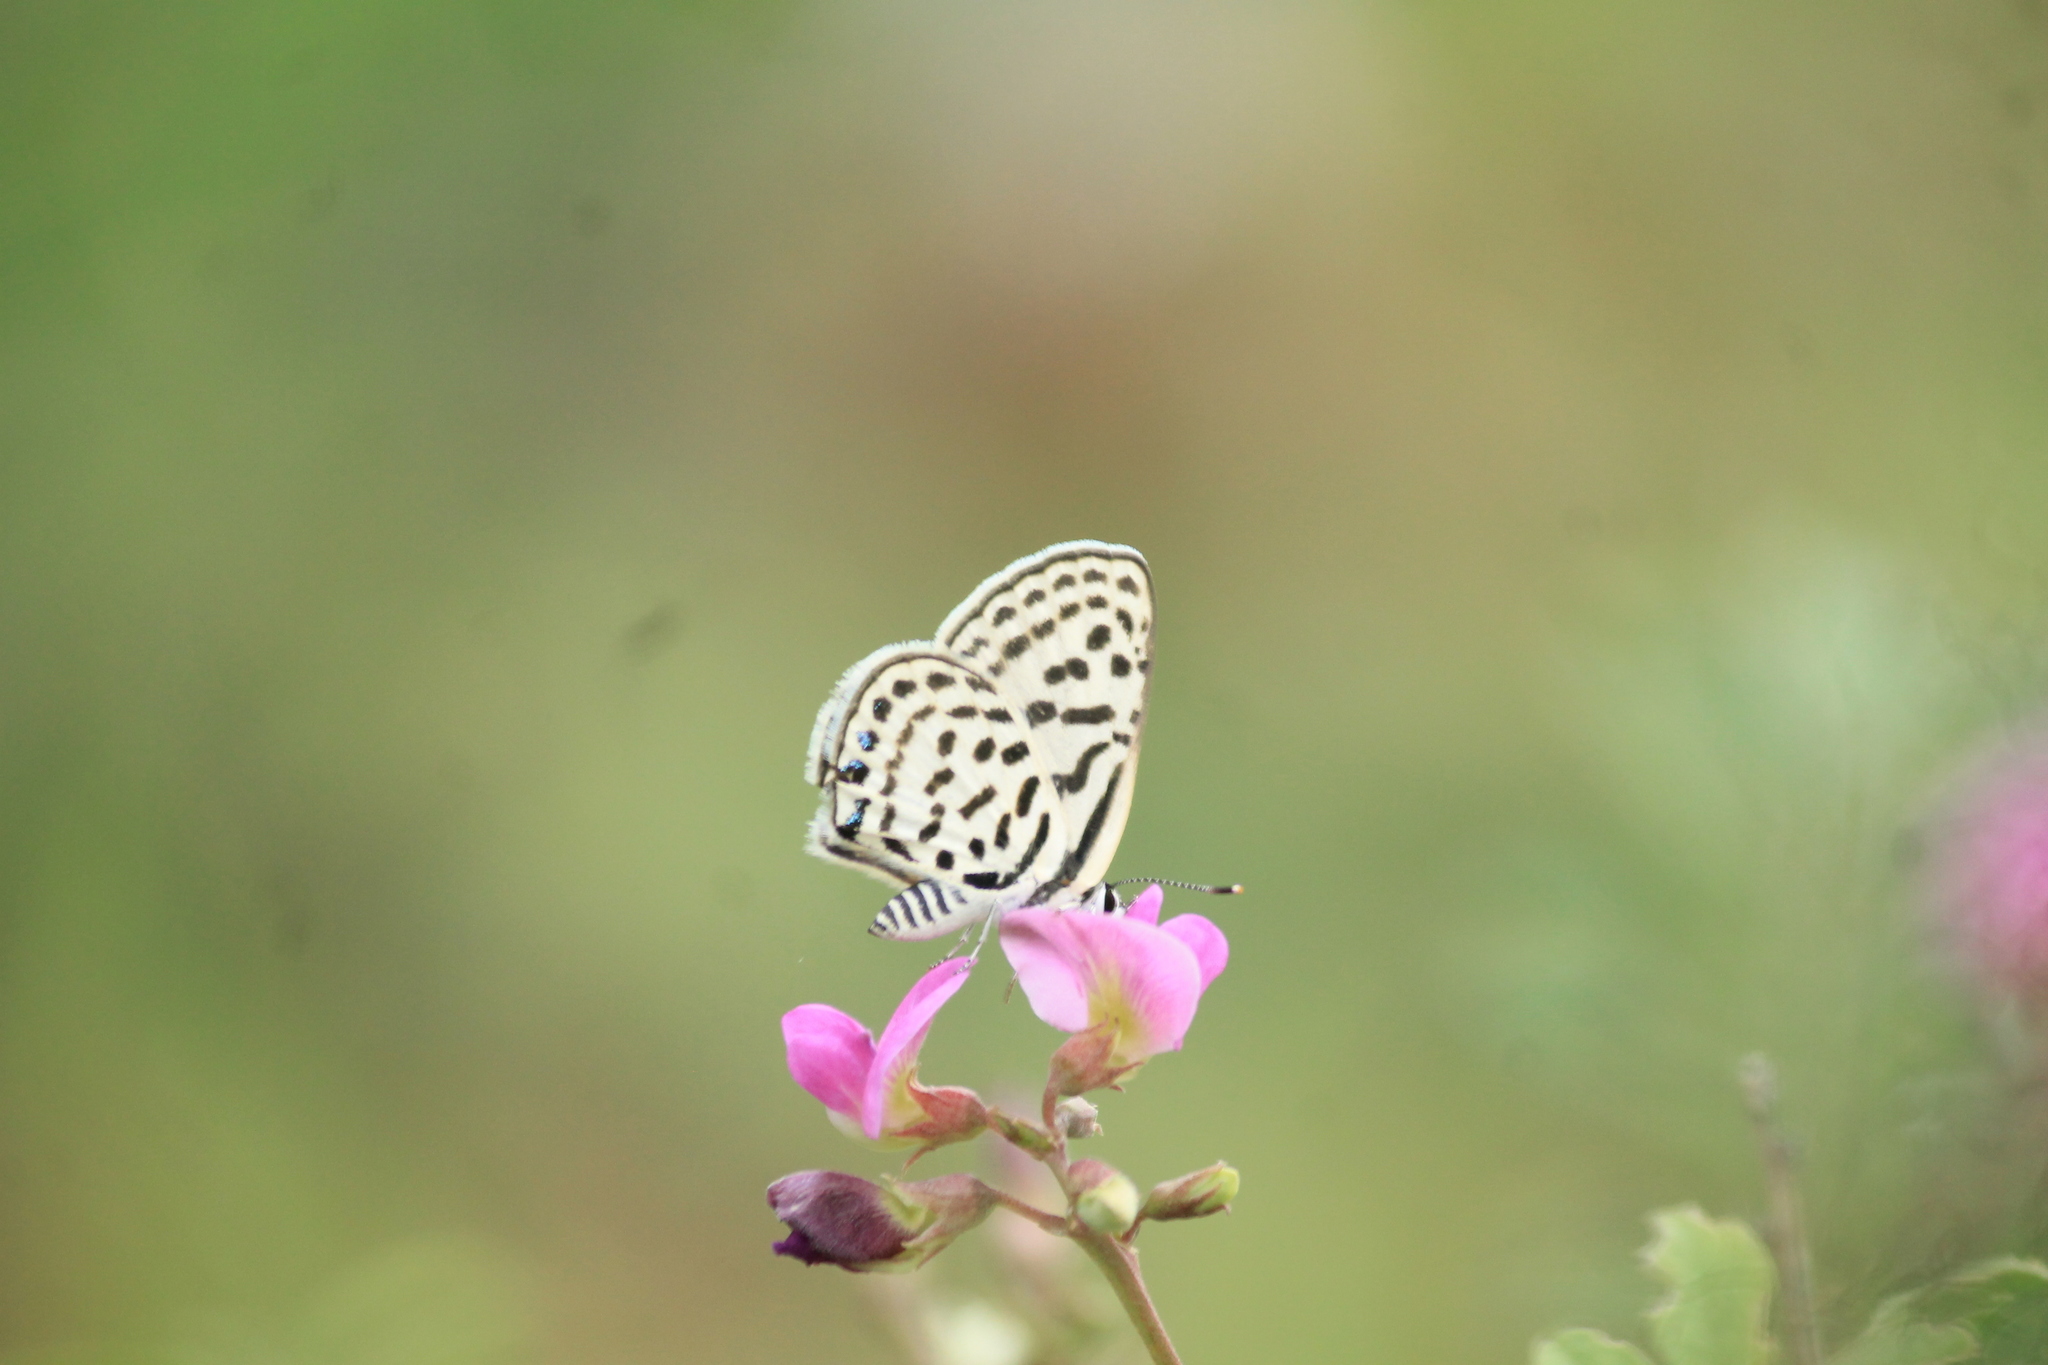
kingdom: Animalia
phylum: Arthropoda
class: Insecta
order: Lepidoptera
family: Lycaenidae
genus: Tarucus
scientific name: Tarucus
